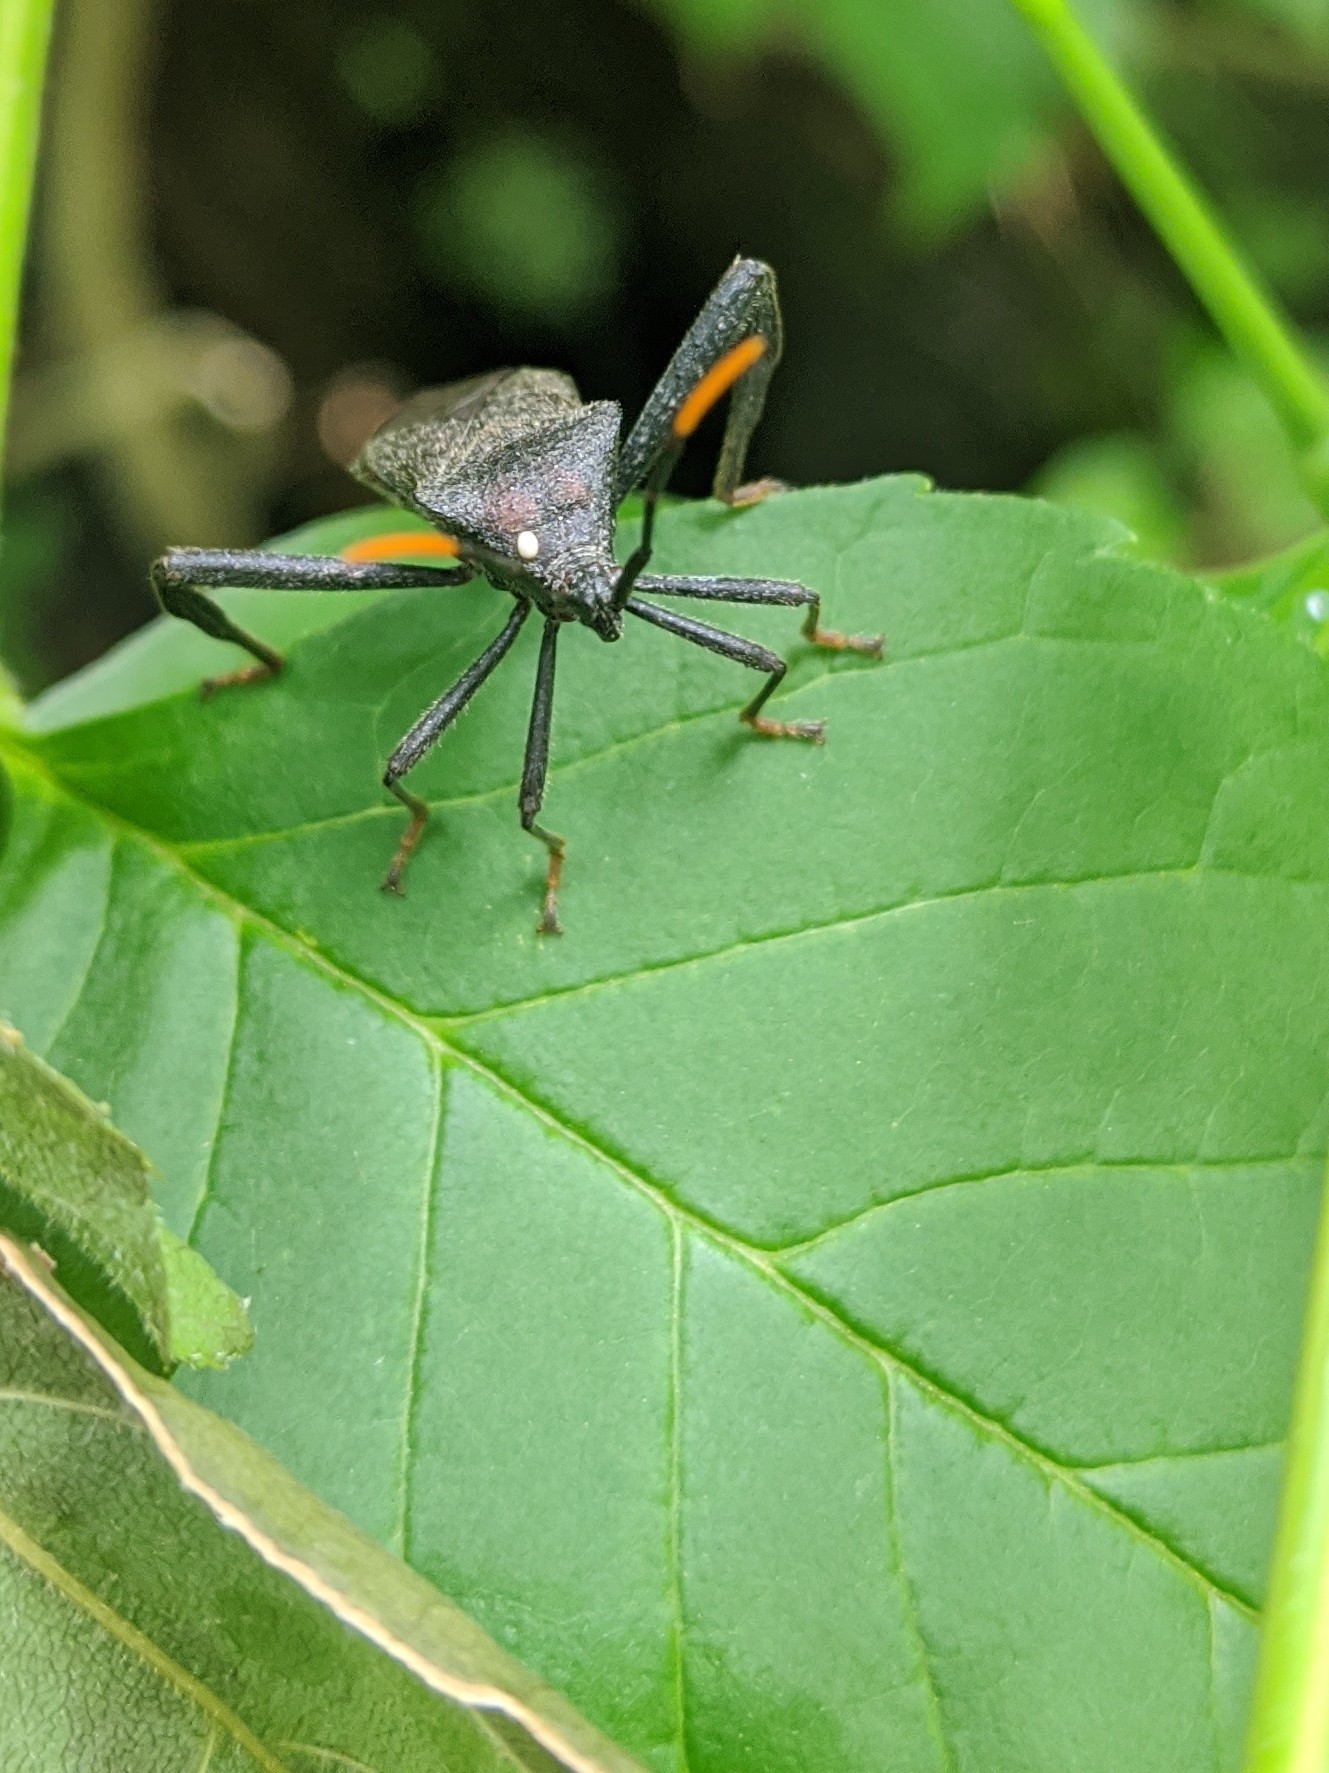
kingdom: Animalia
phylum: Arthropoda
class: Insecta
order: Hemiptera
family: Coreidae
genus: Acanthocephala
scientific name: Acanthocephala terminalis
